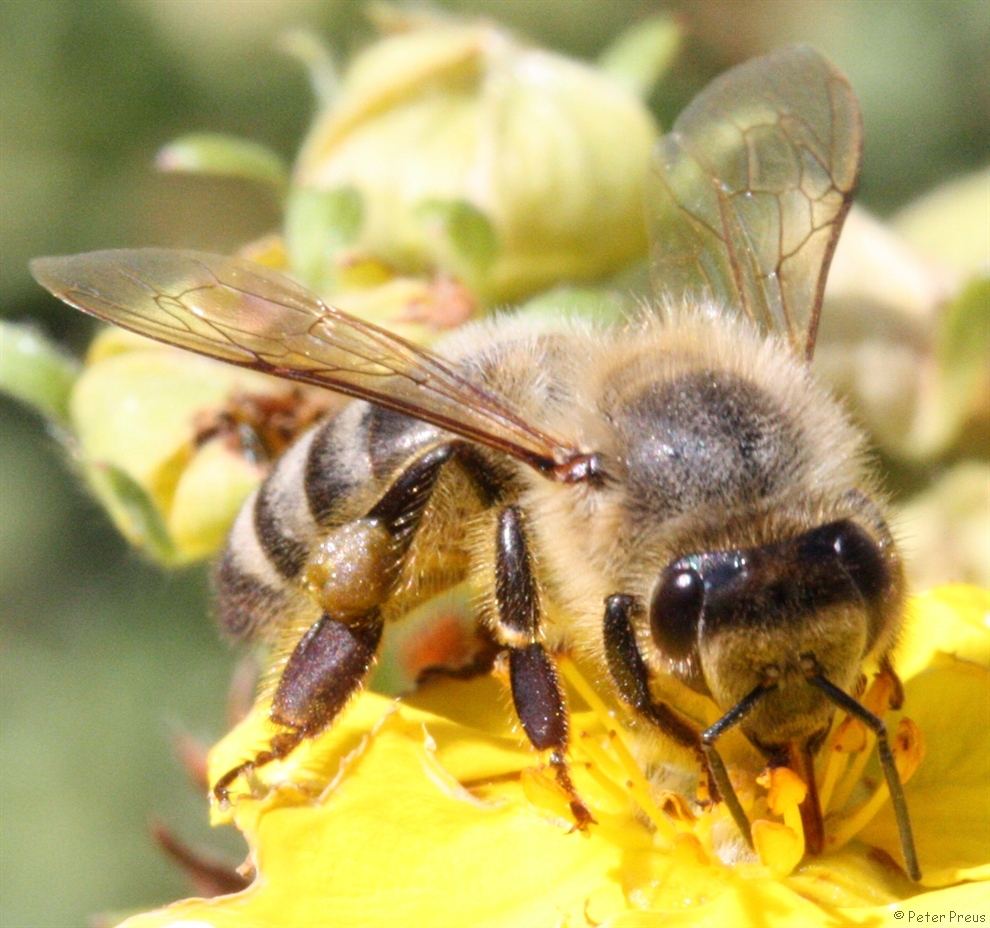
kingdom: Animalia
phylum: Arthropoda
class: Insecta
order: Hymenoptera
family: Apidae
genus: Apis
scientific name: Apis mellifera
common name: Honey bee
